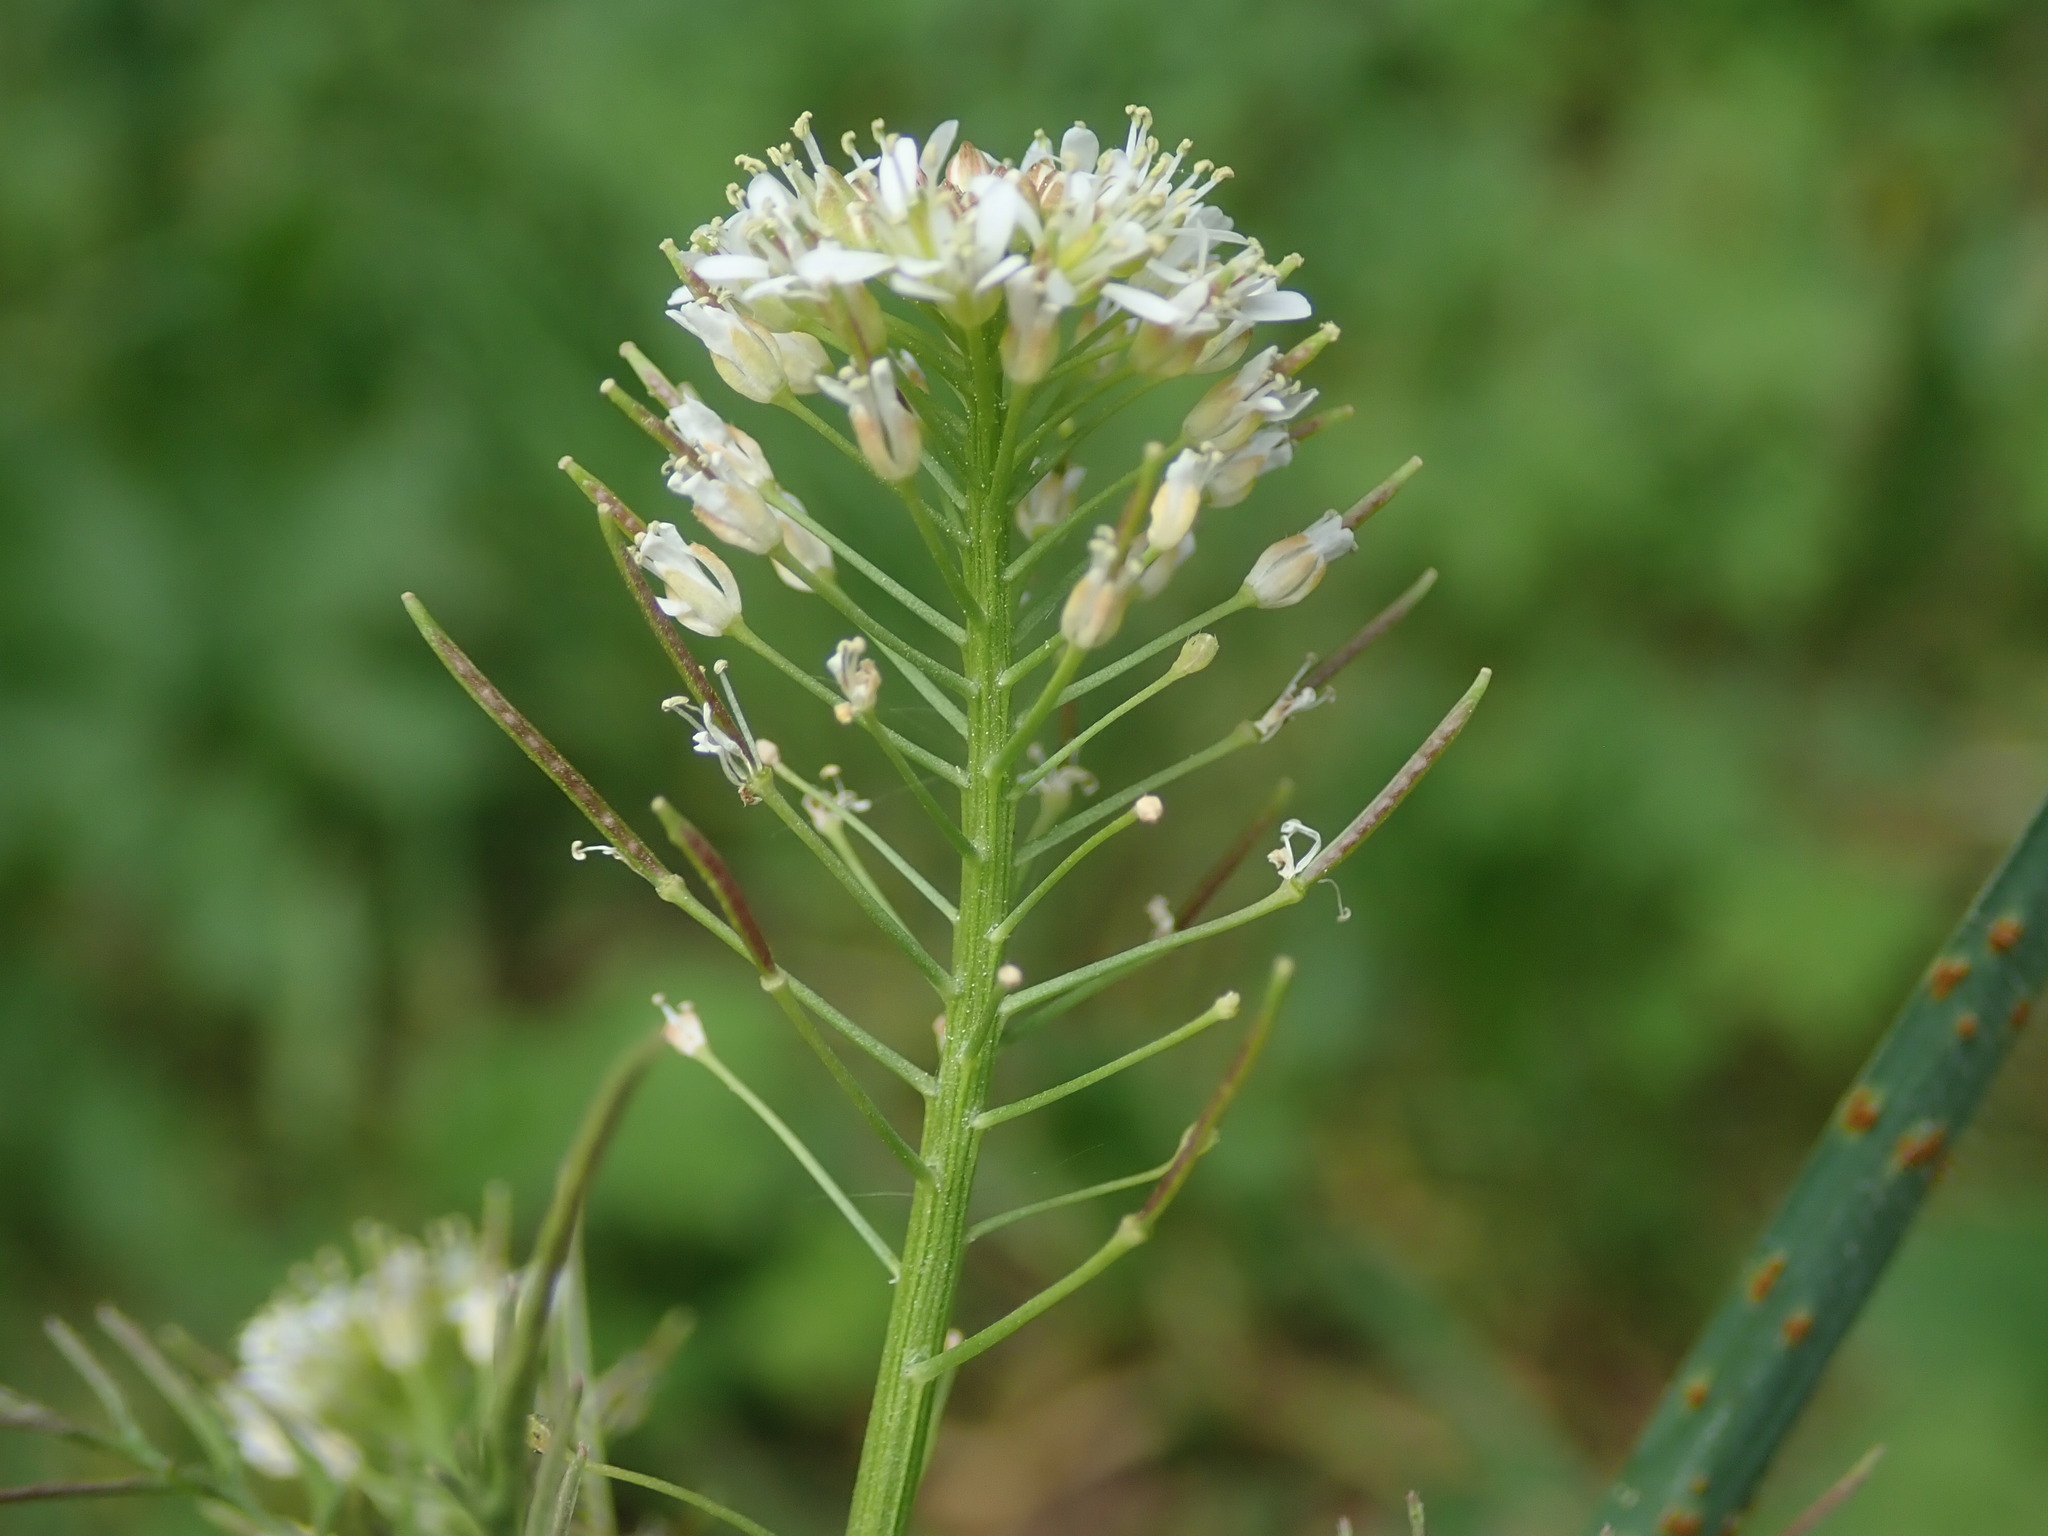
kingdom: Plantae
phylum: Tracheophyta
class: Magnoliopsida
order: Brassicales
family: Brassicaceae
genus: Cardamine
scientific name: Cardamine impatiens
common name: Narrow-leaved bitter-cress
